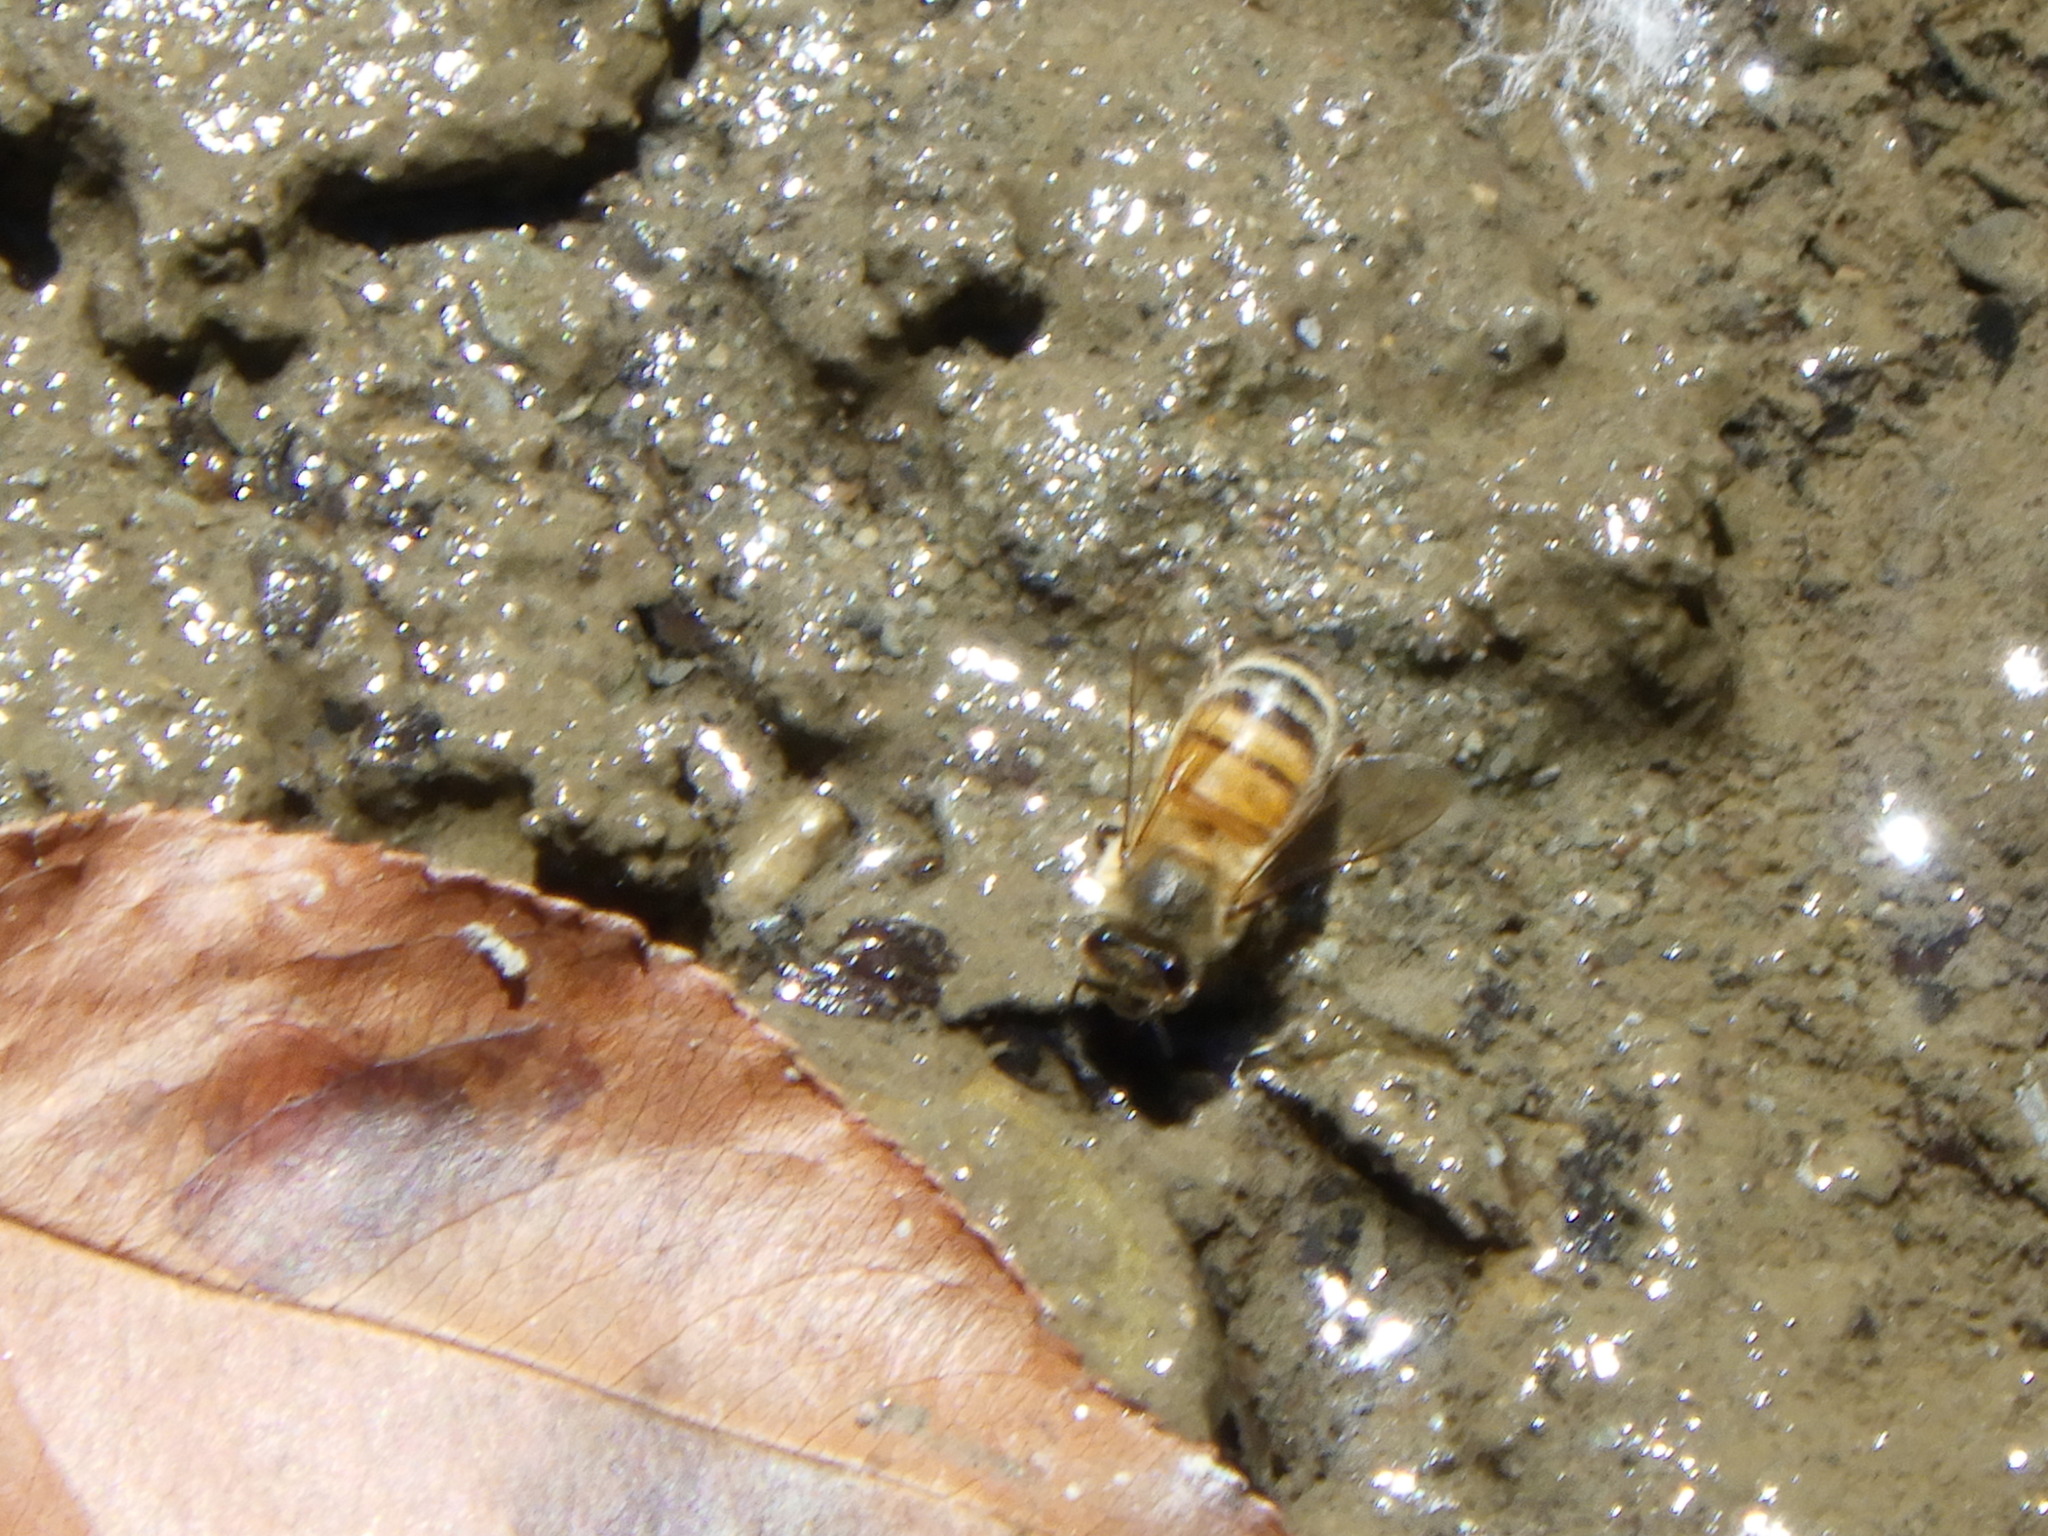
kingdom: Animalia
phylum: Arthropoda
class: Insecta
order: Hymenoptera
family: Apidae
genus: Apis
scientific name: Apis mellifera
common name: Honey bee
